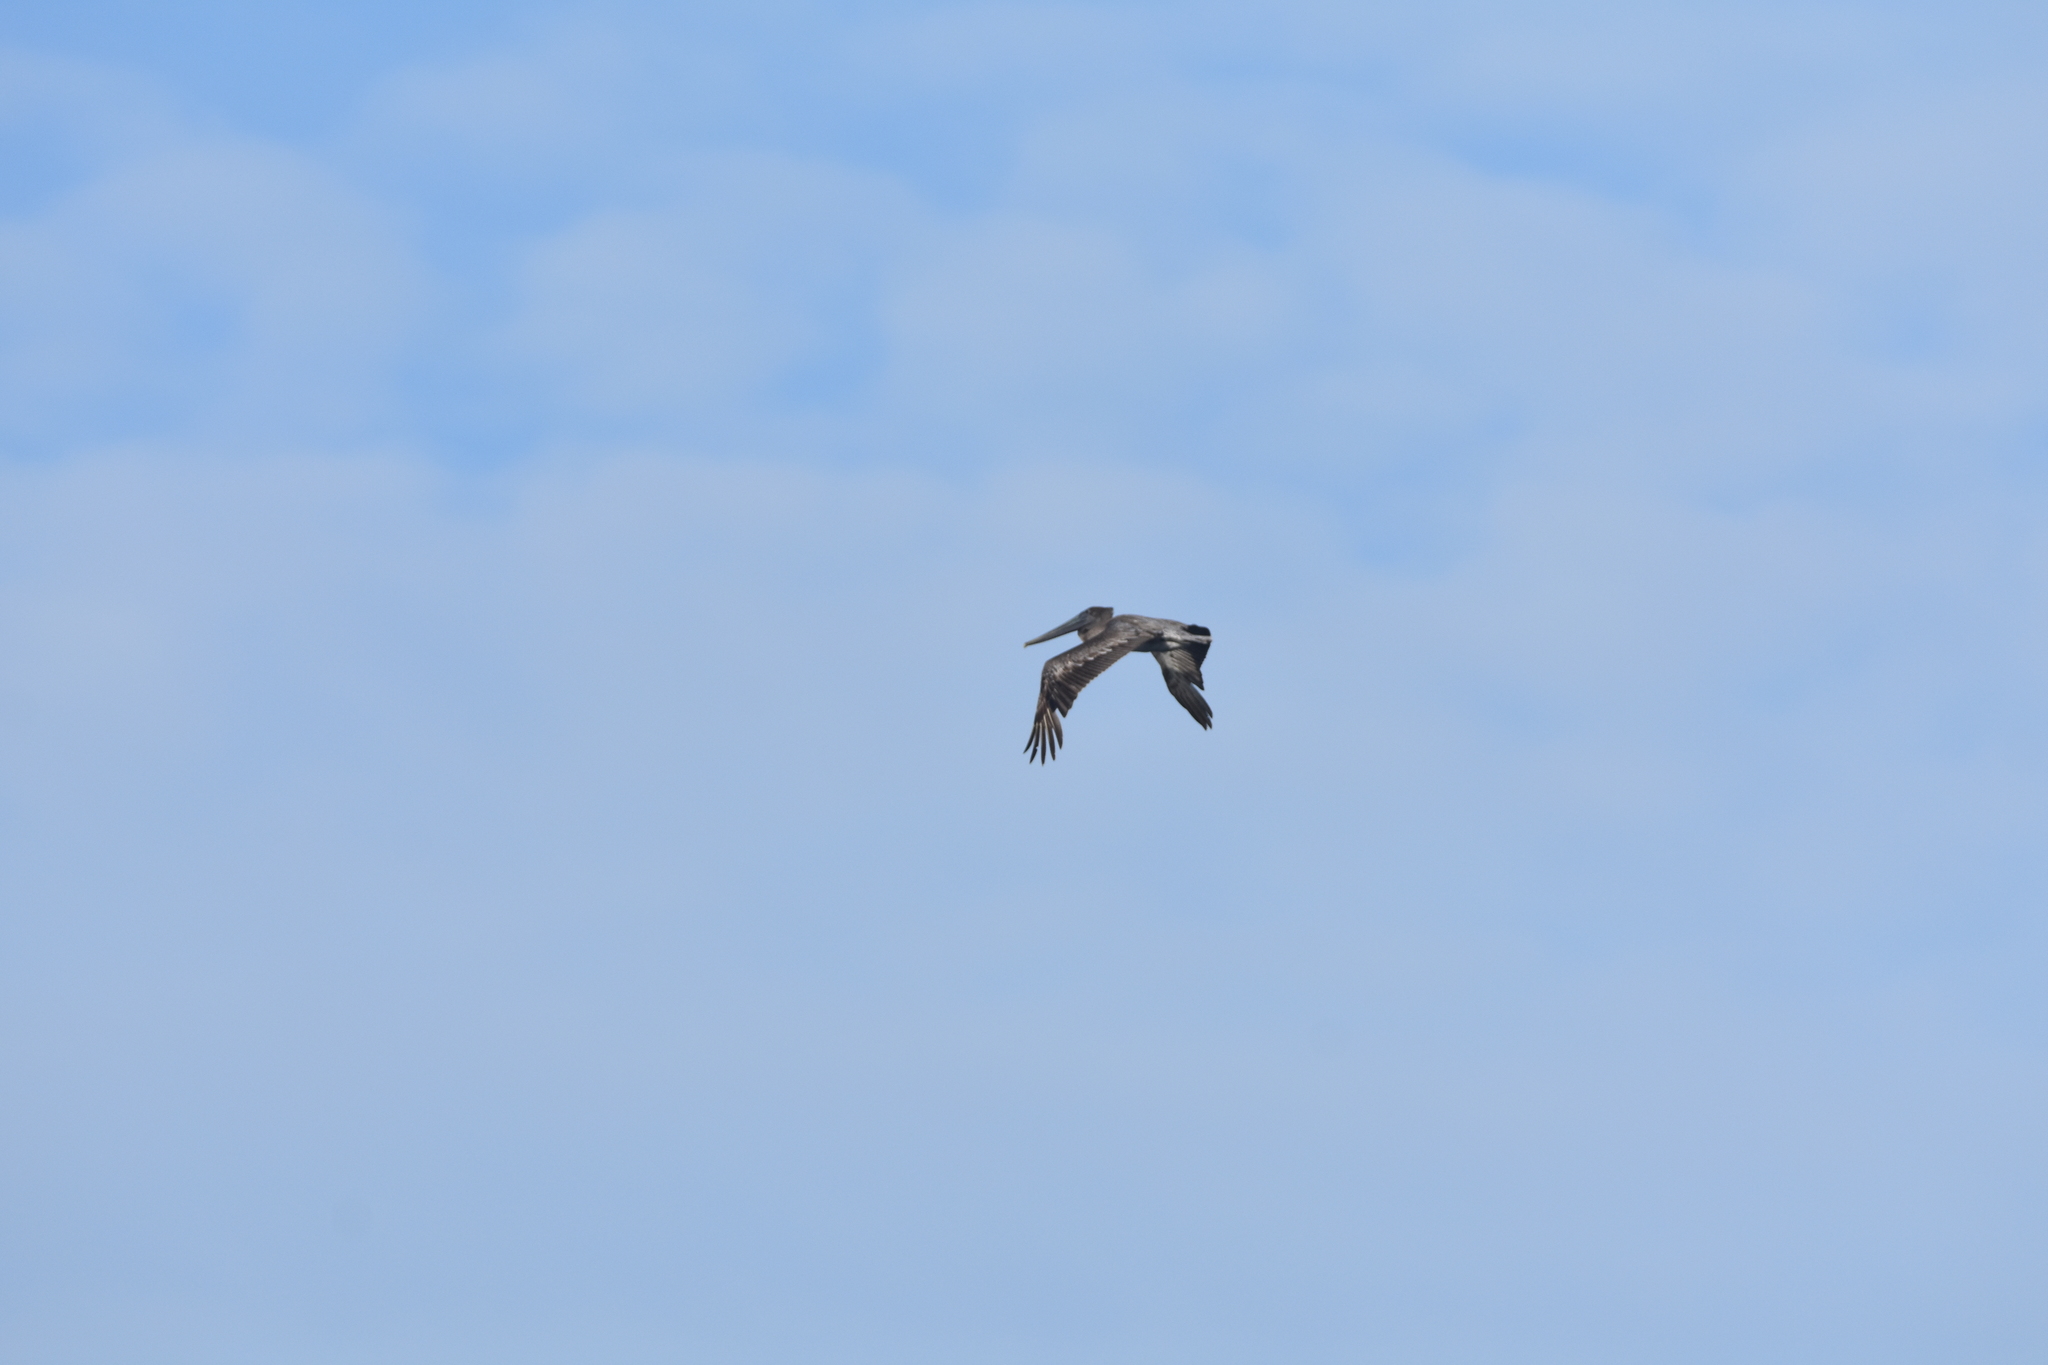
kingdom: Animalia
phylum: Chordata
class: Aves
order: Pelecaniformes
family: Pelecanidae
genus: Pelecanus
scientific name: Pelecanus occidentalis
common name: Brown pelican
